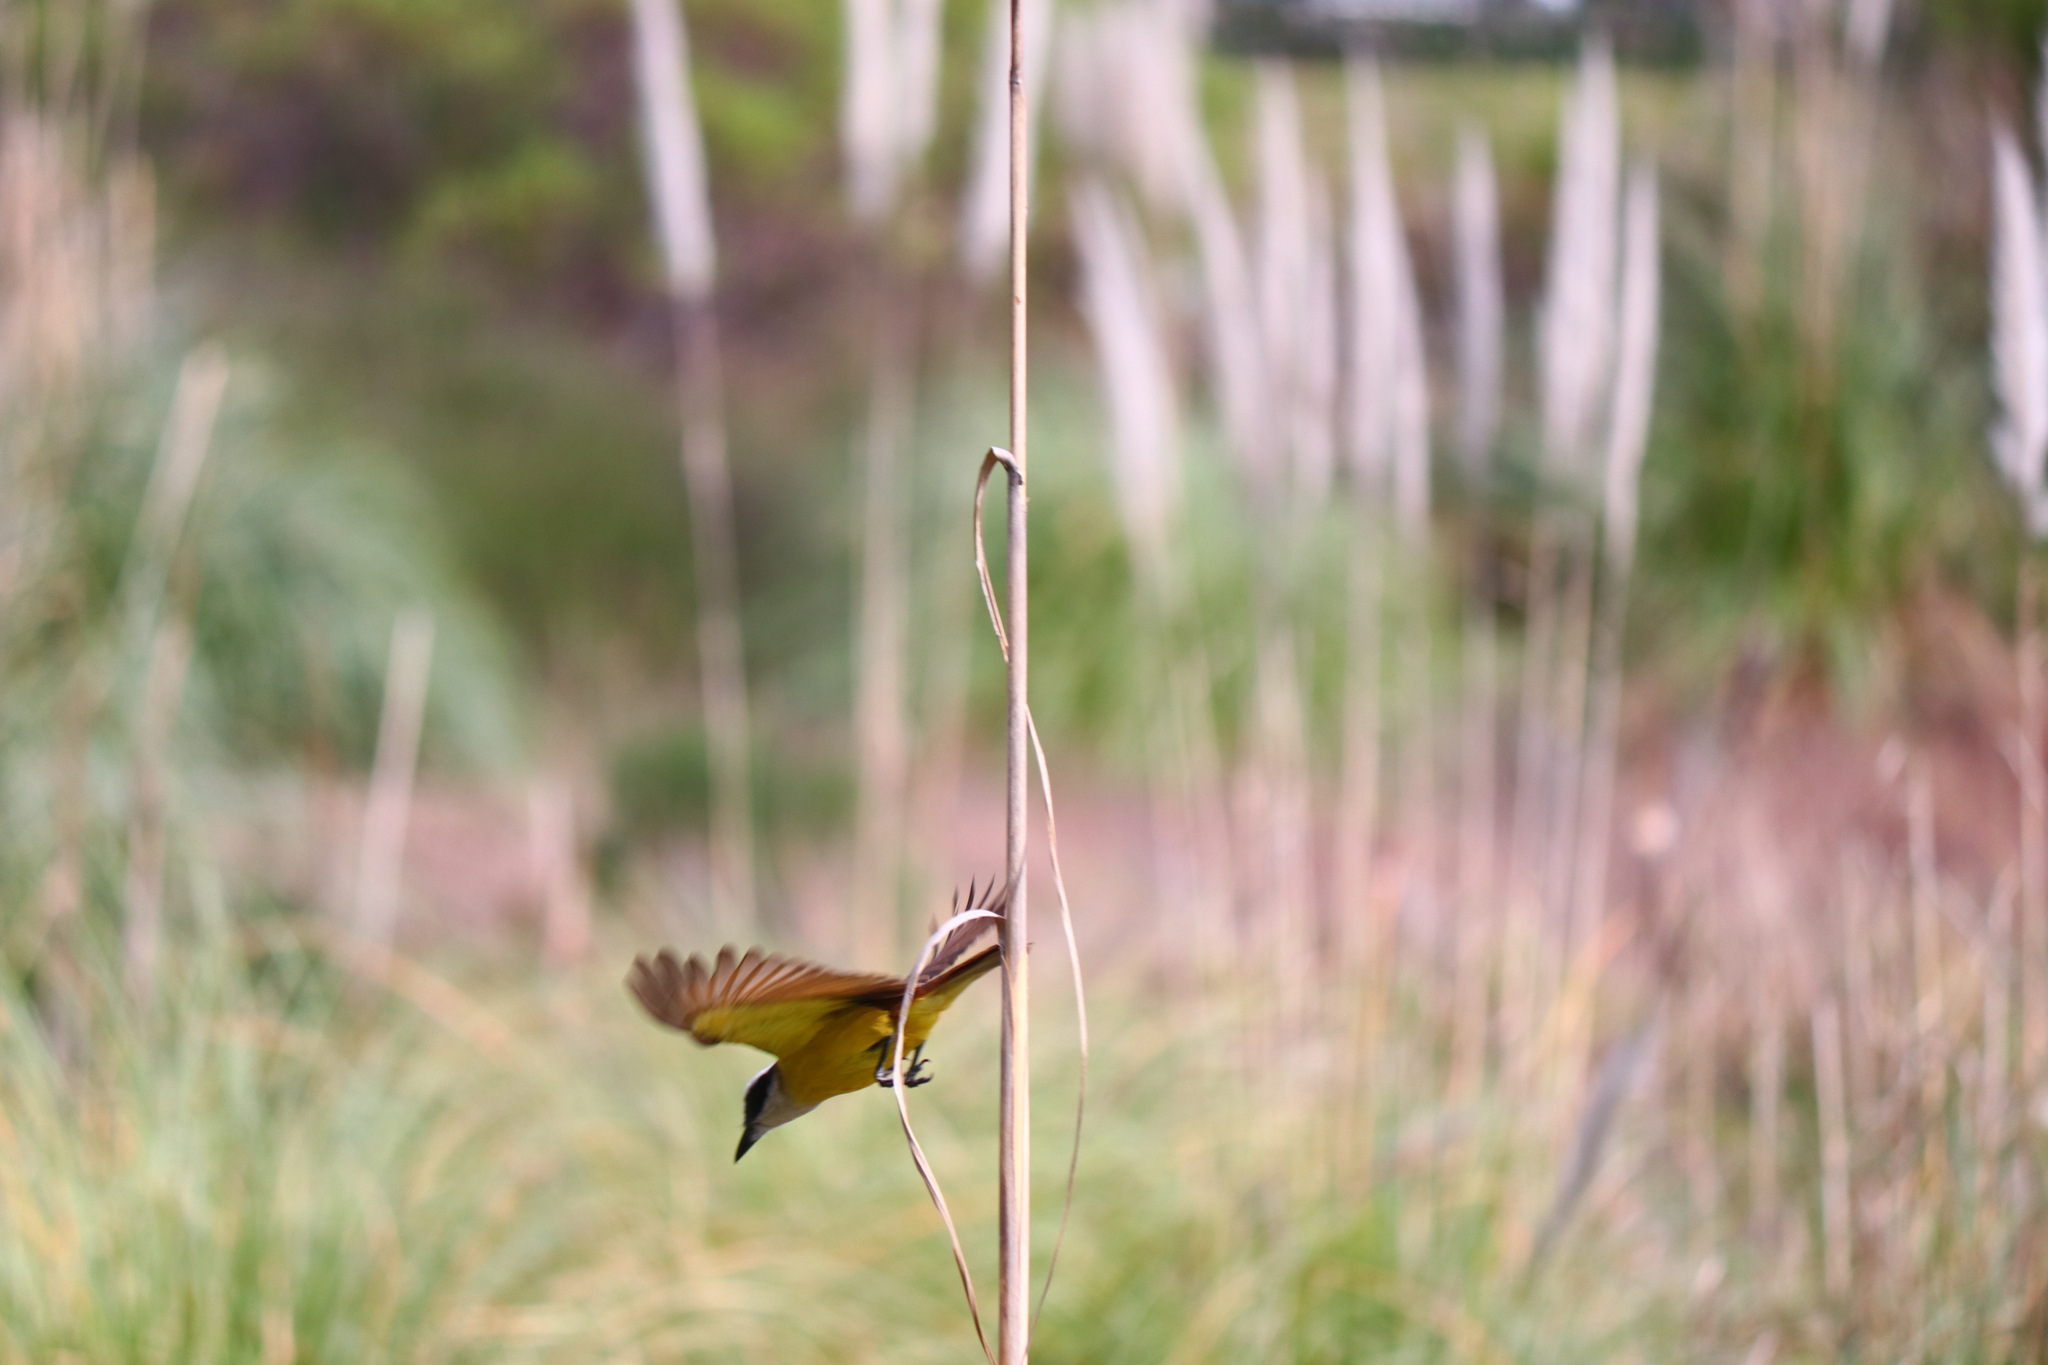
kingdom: Animalia
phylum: Chordata
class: Aves
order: Passeriformes
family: Tyrannidae
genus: Pitangus
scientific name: Pitangus sulphuratus
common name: Great kiskadee
